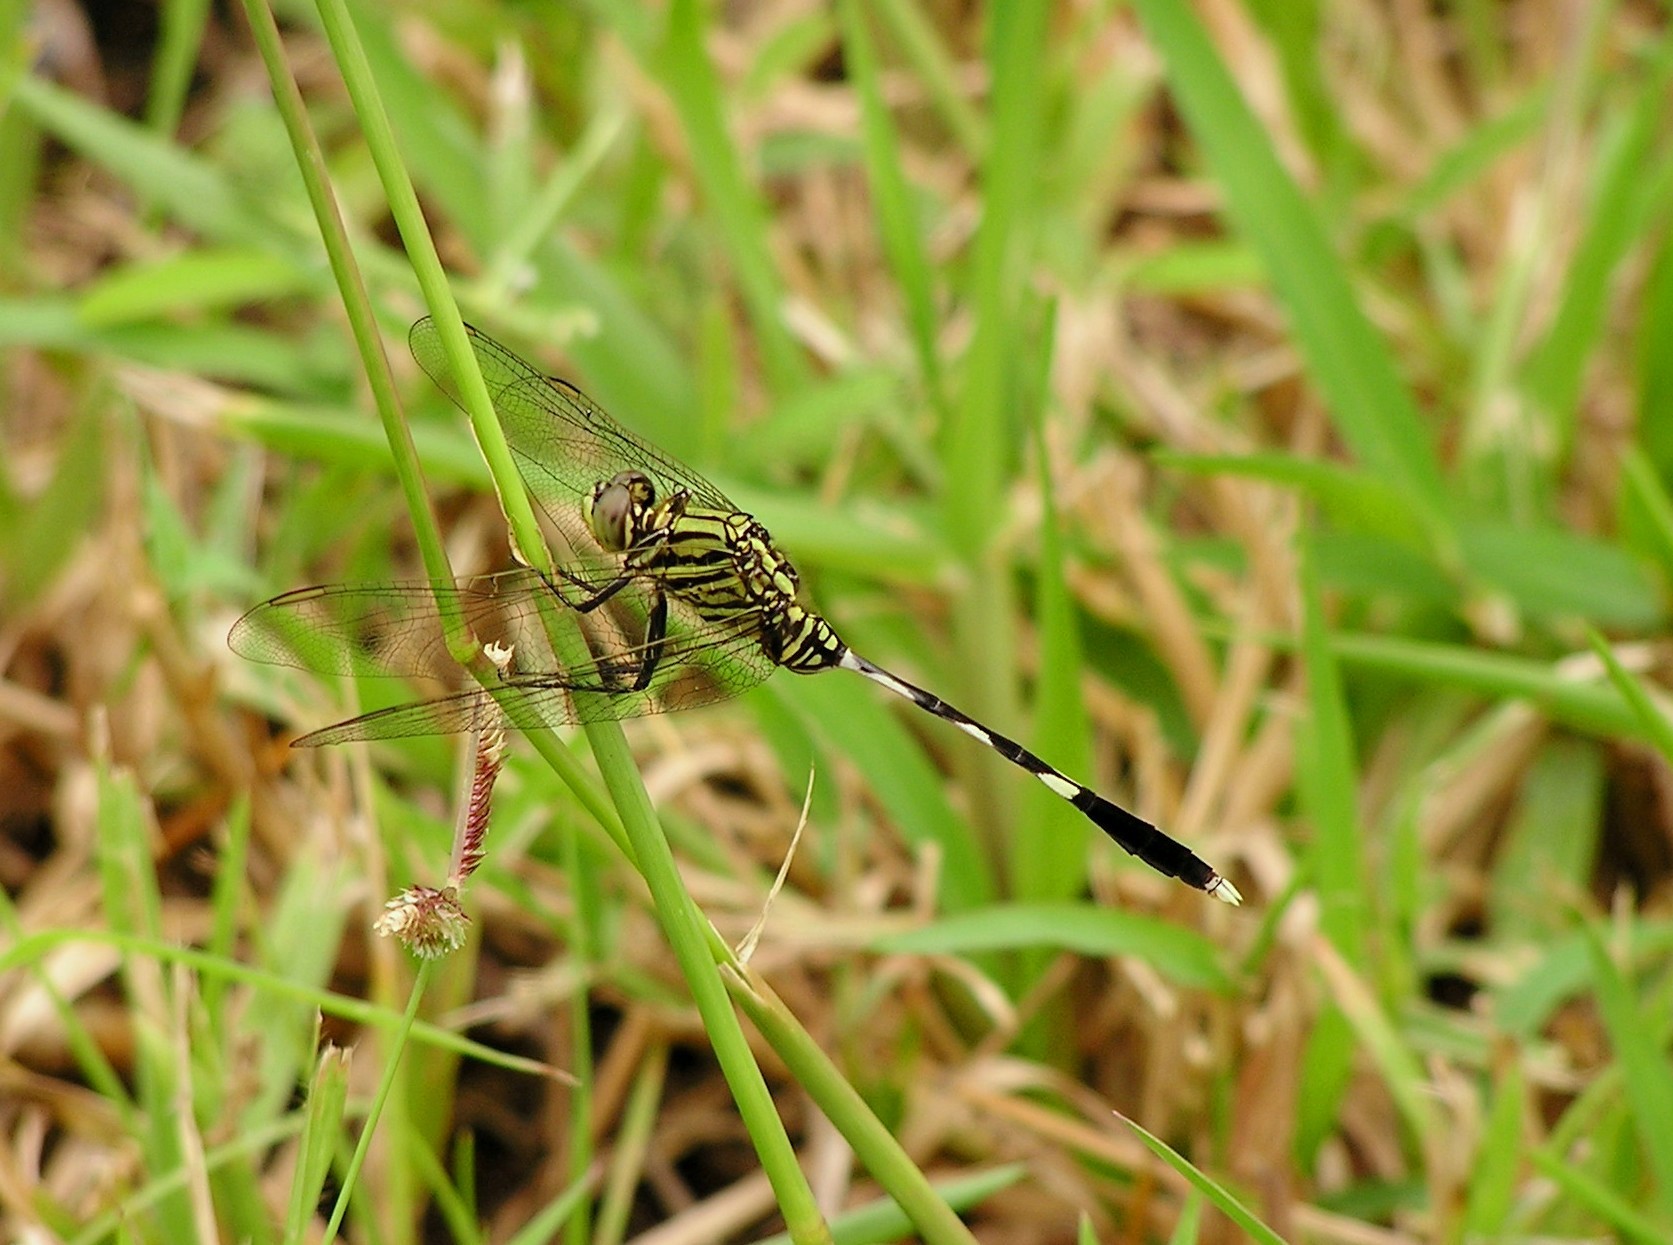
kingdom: Animalia
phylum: Arthropoda
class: Insecta
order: Odonata
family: Libellulidae
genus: Orthetrum
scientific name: Orthetrum sabina
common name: Slender skimmer
